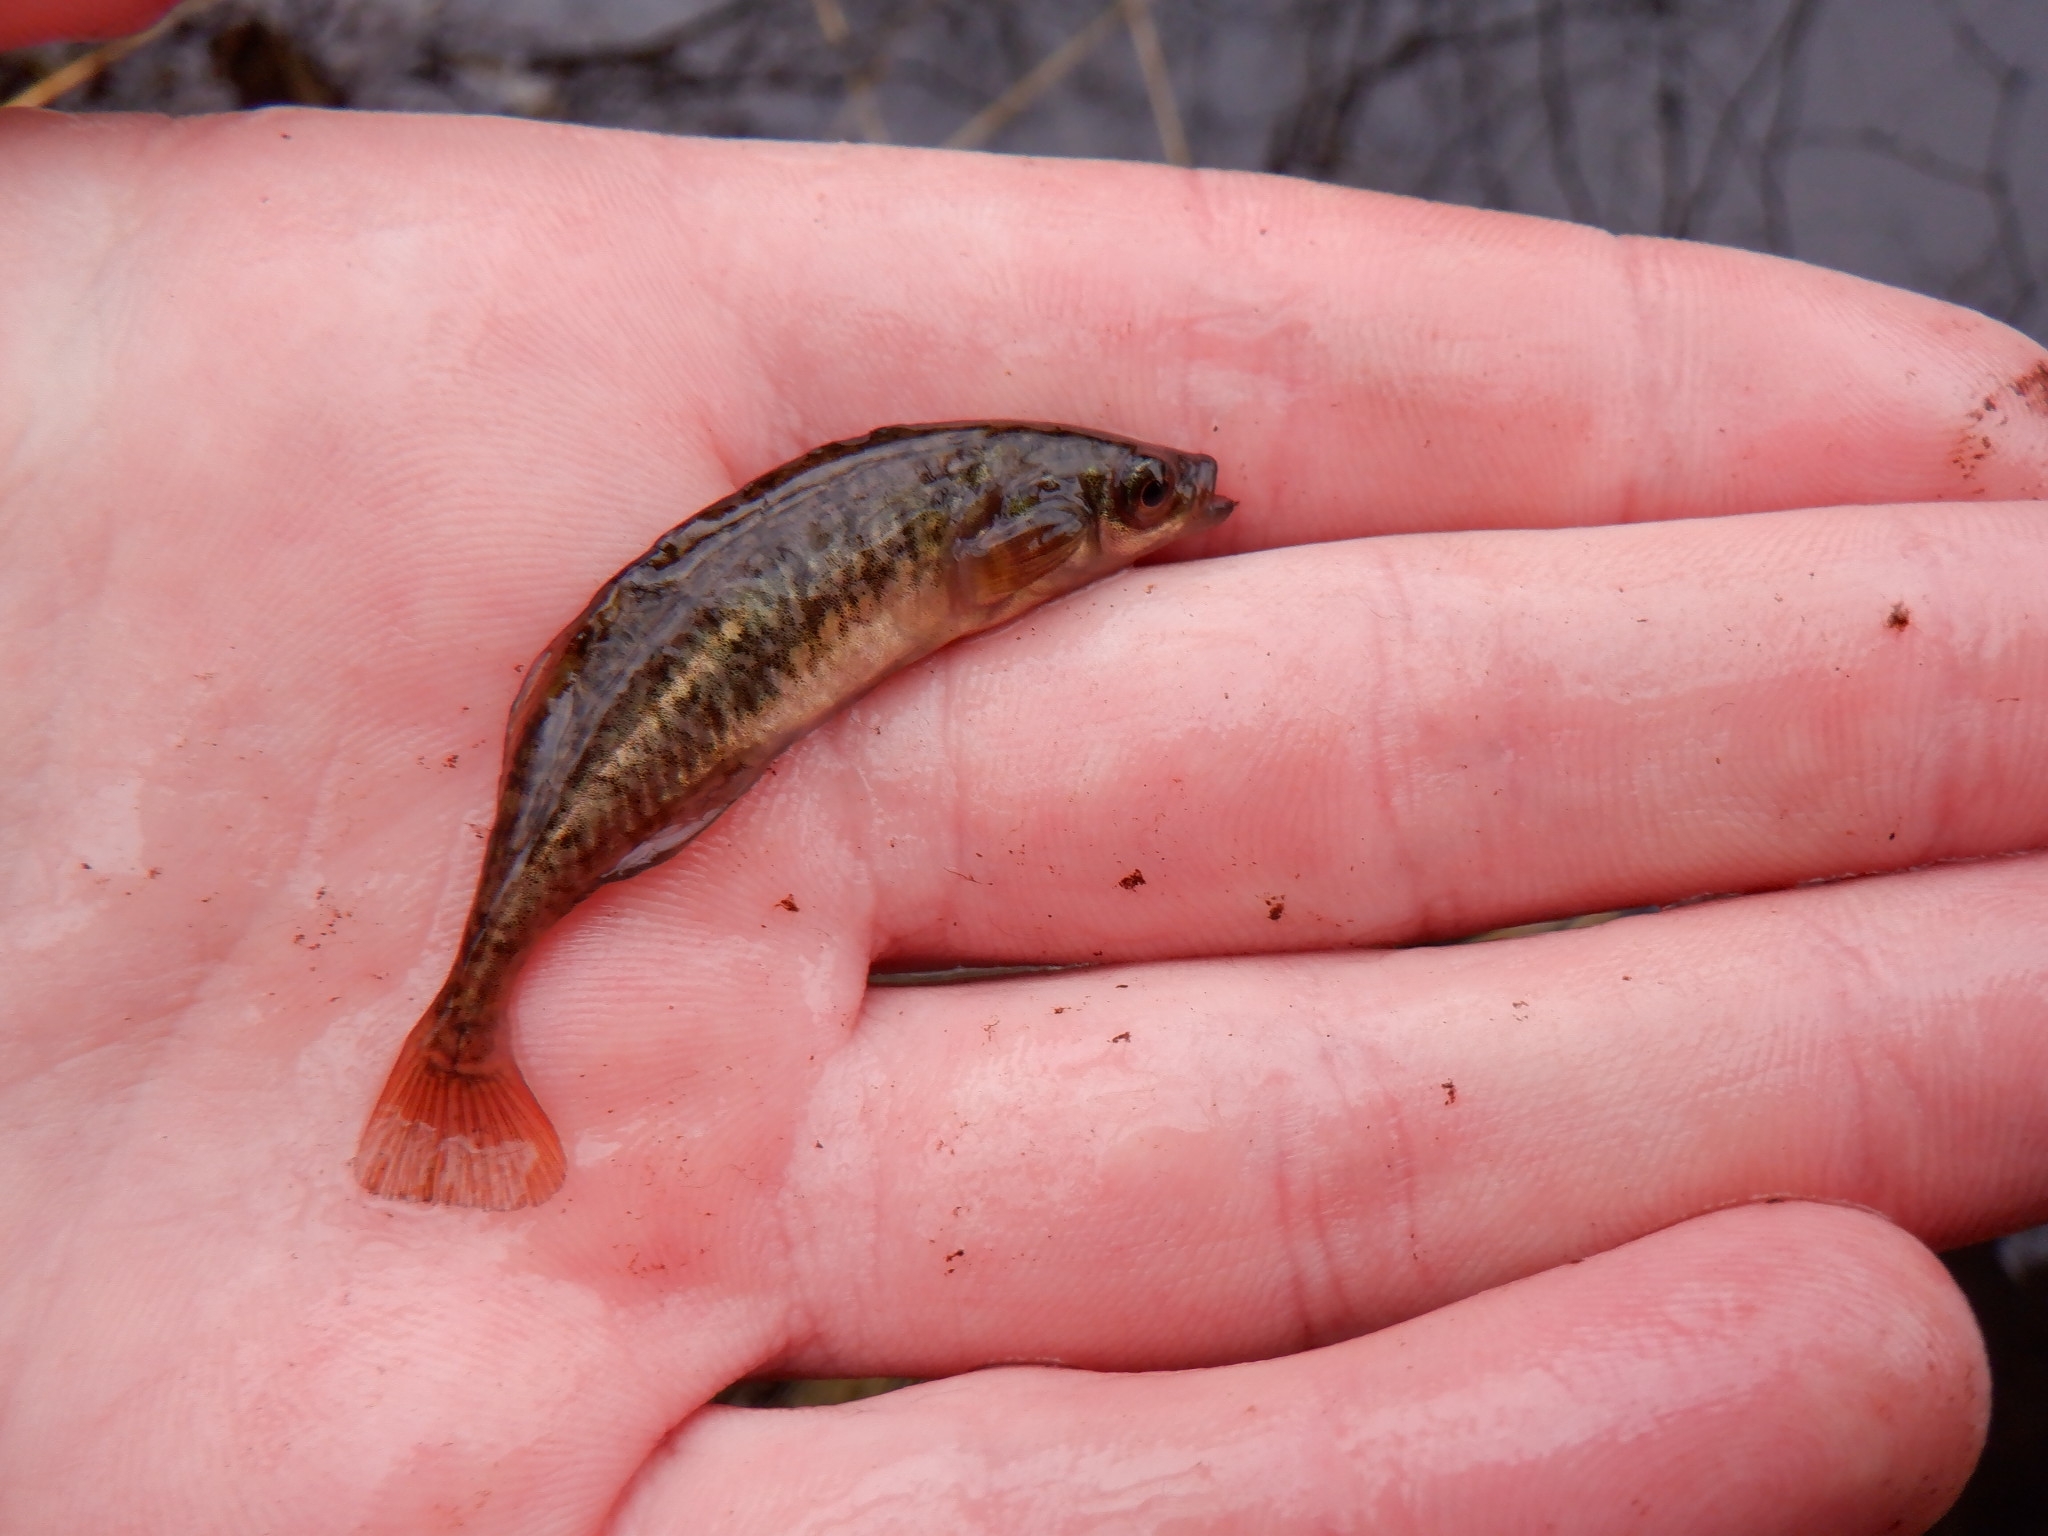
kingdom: Animalia
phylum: Chordata
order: Gasterosteiformes
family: Gasterosteidae
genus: Culaea
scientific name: Culaea inconstans
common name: Brook stickleback
